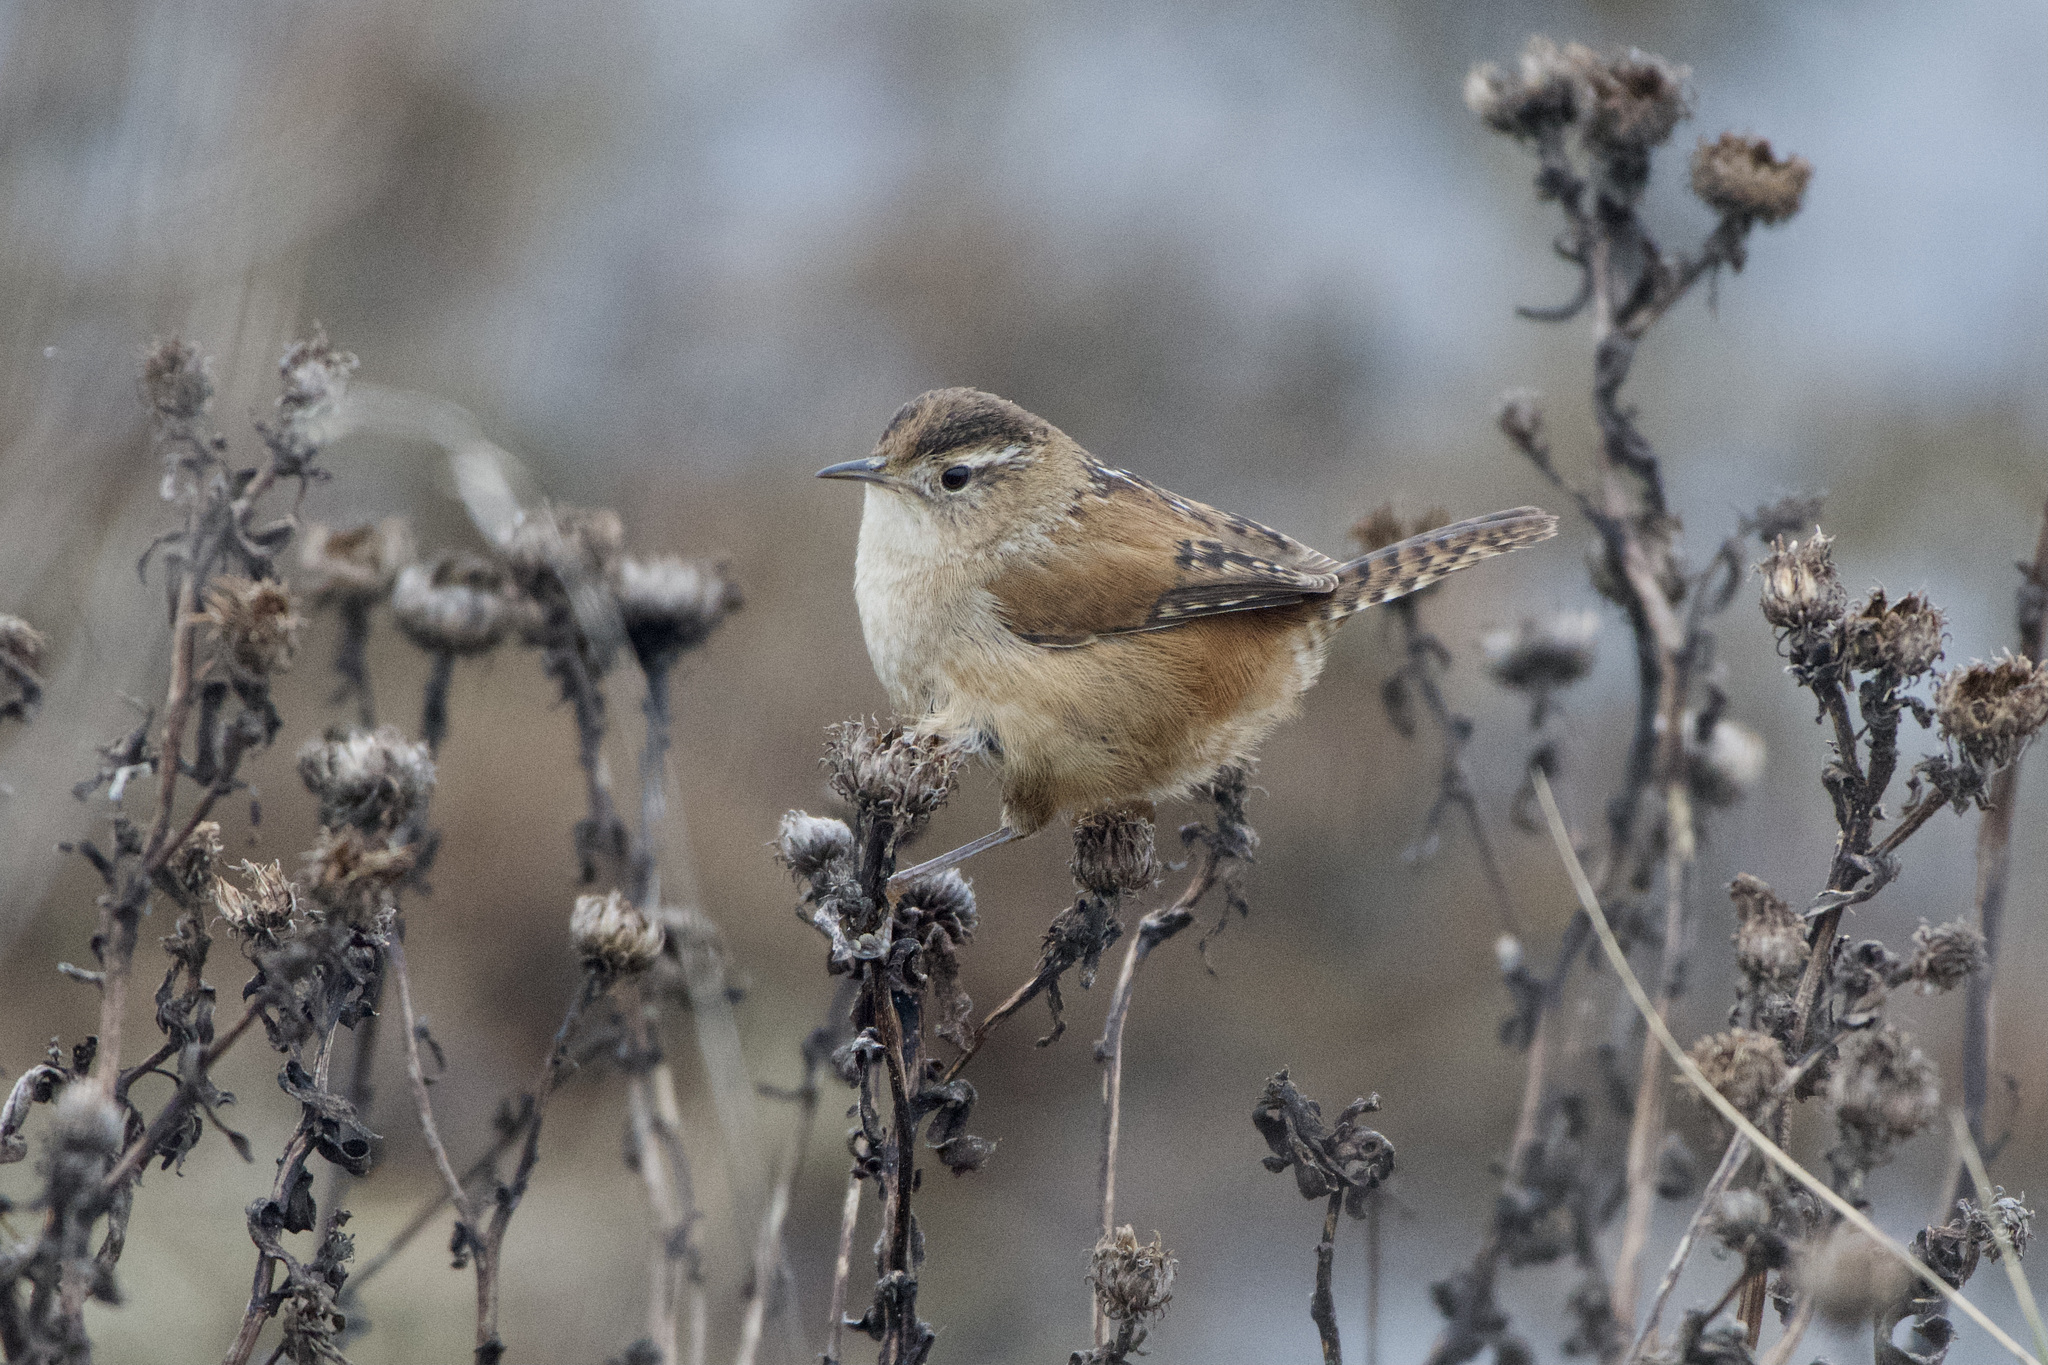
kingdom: Animalia
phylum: Chordata
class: Aves
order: Passeriformes
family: Troglodytidae
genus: Cistothorus
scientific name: Cistothorus palustris
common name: Marsh wren
